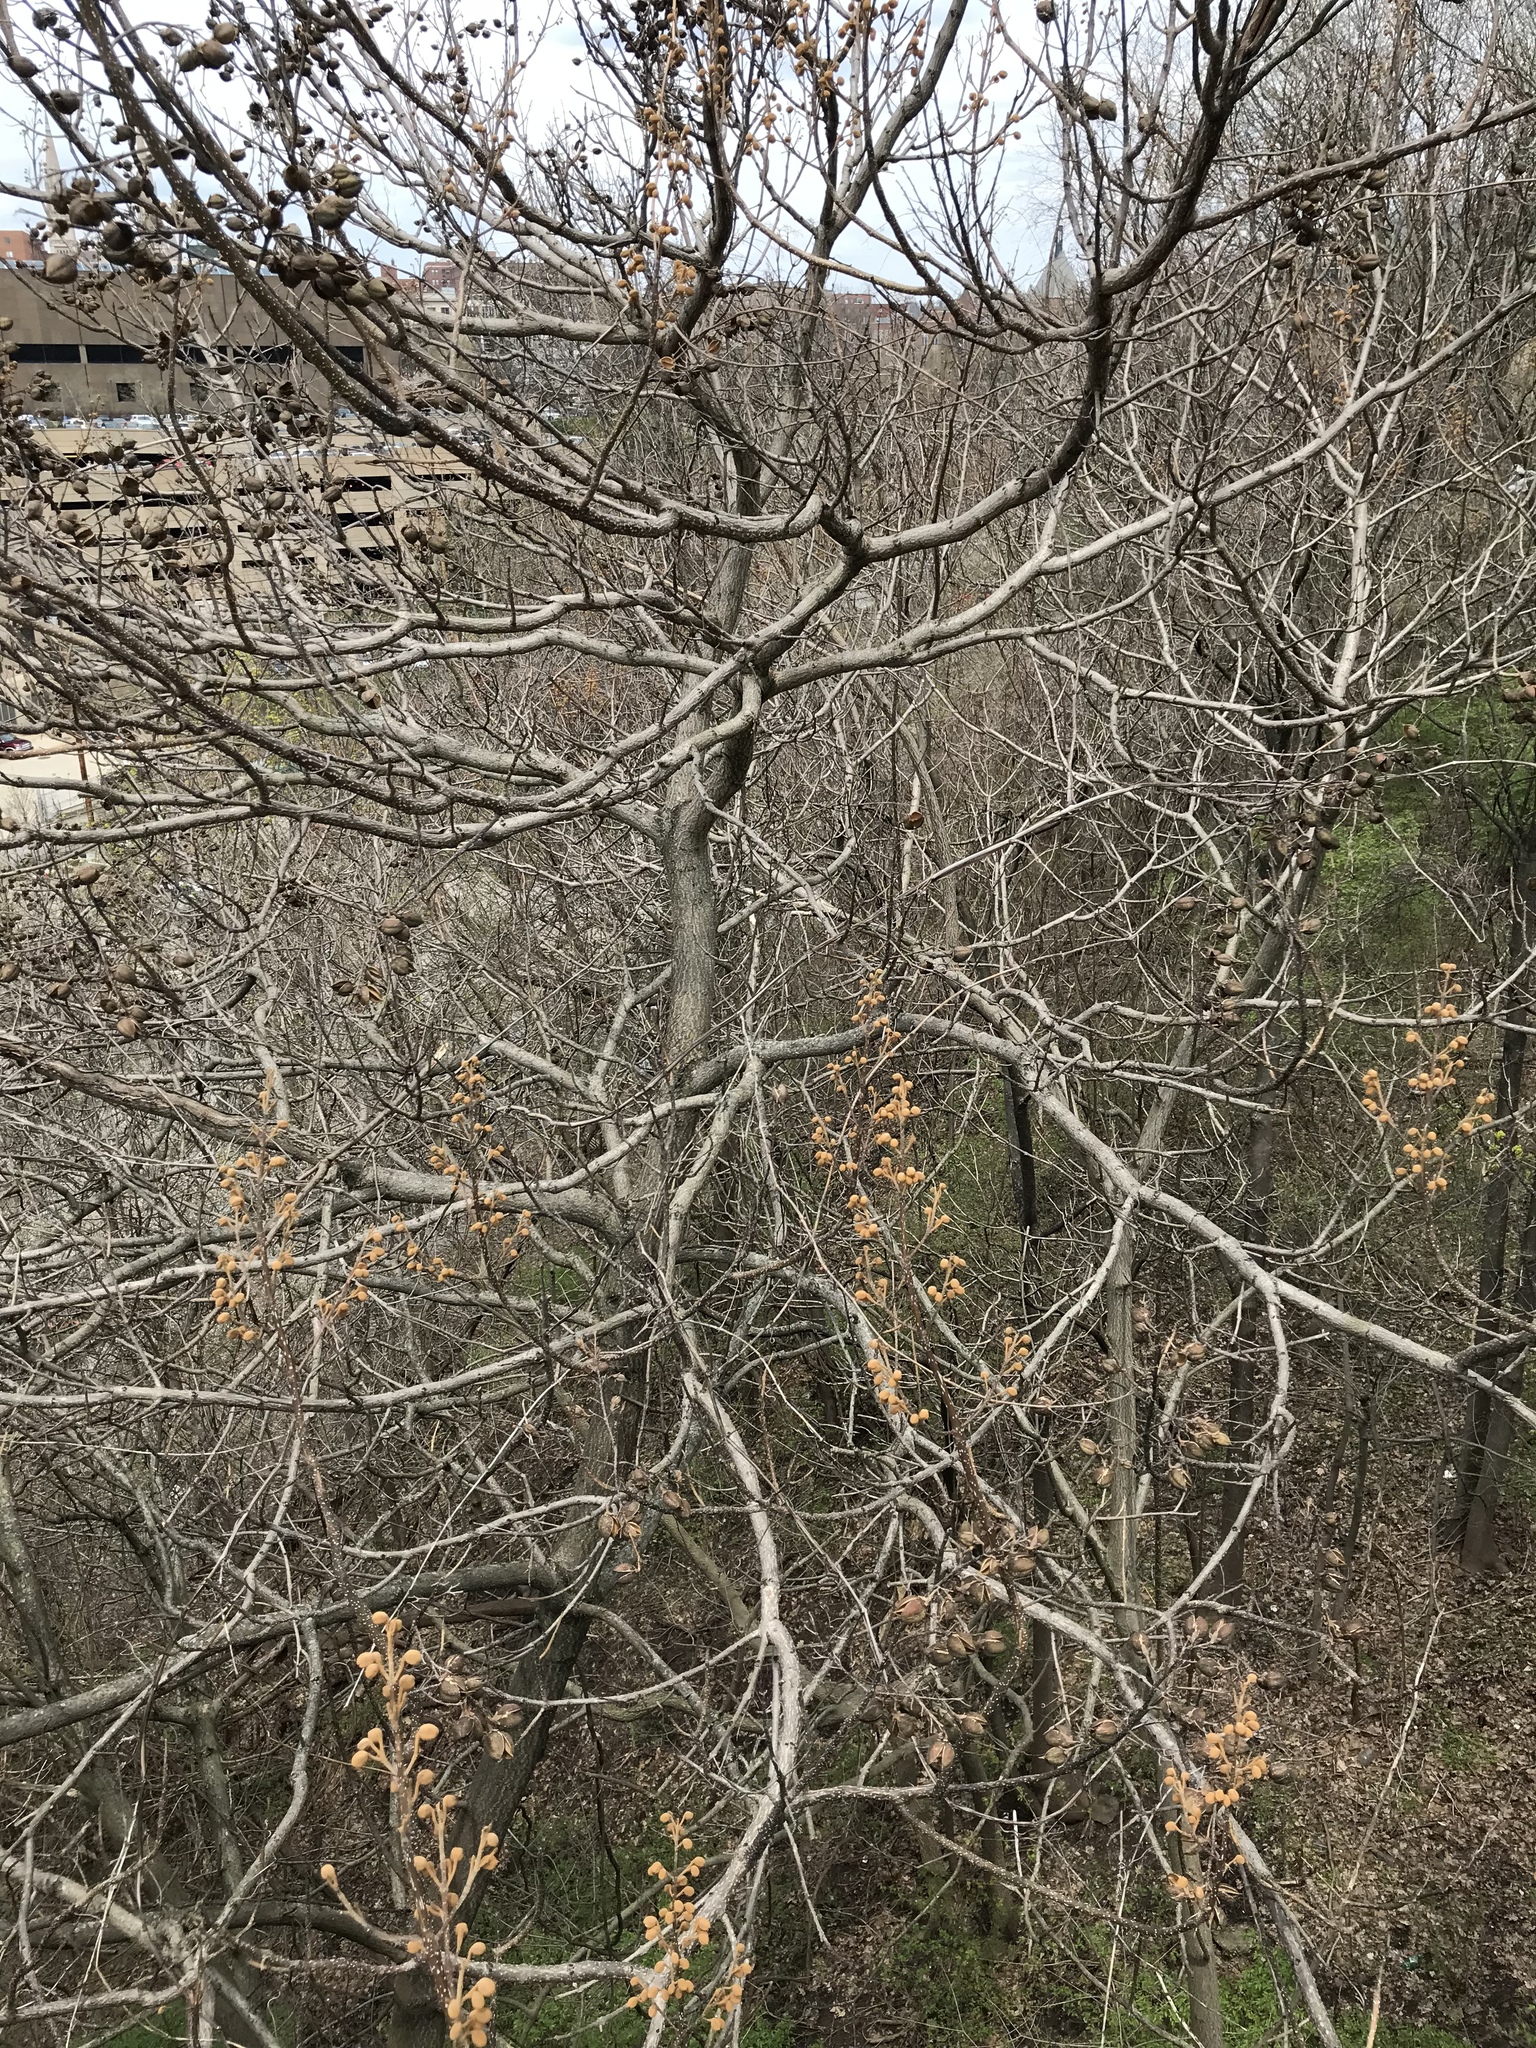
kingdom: Plantae
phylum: Tracheophyta
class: Magnoliopsida
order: Lamiales
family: Paulowniaceae
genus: Paulownia
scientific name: Paulownia tomentosa
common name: Foxglove-tree
